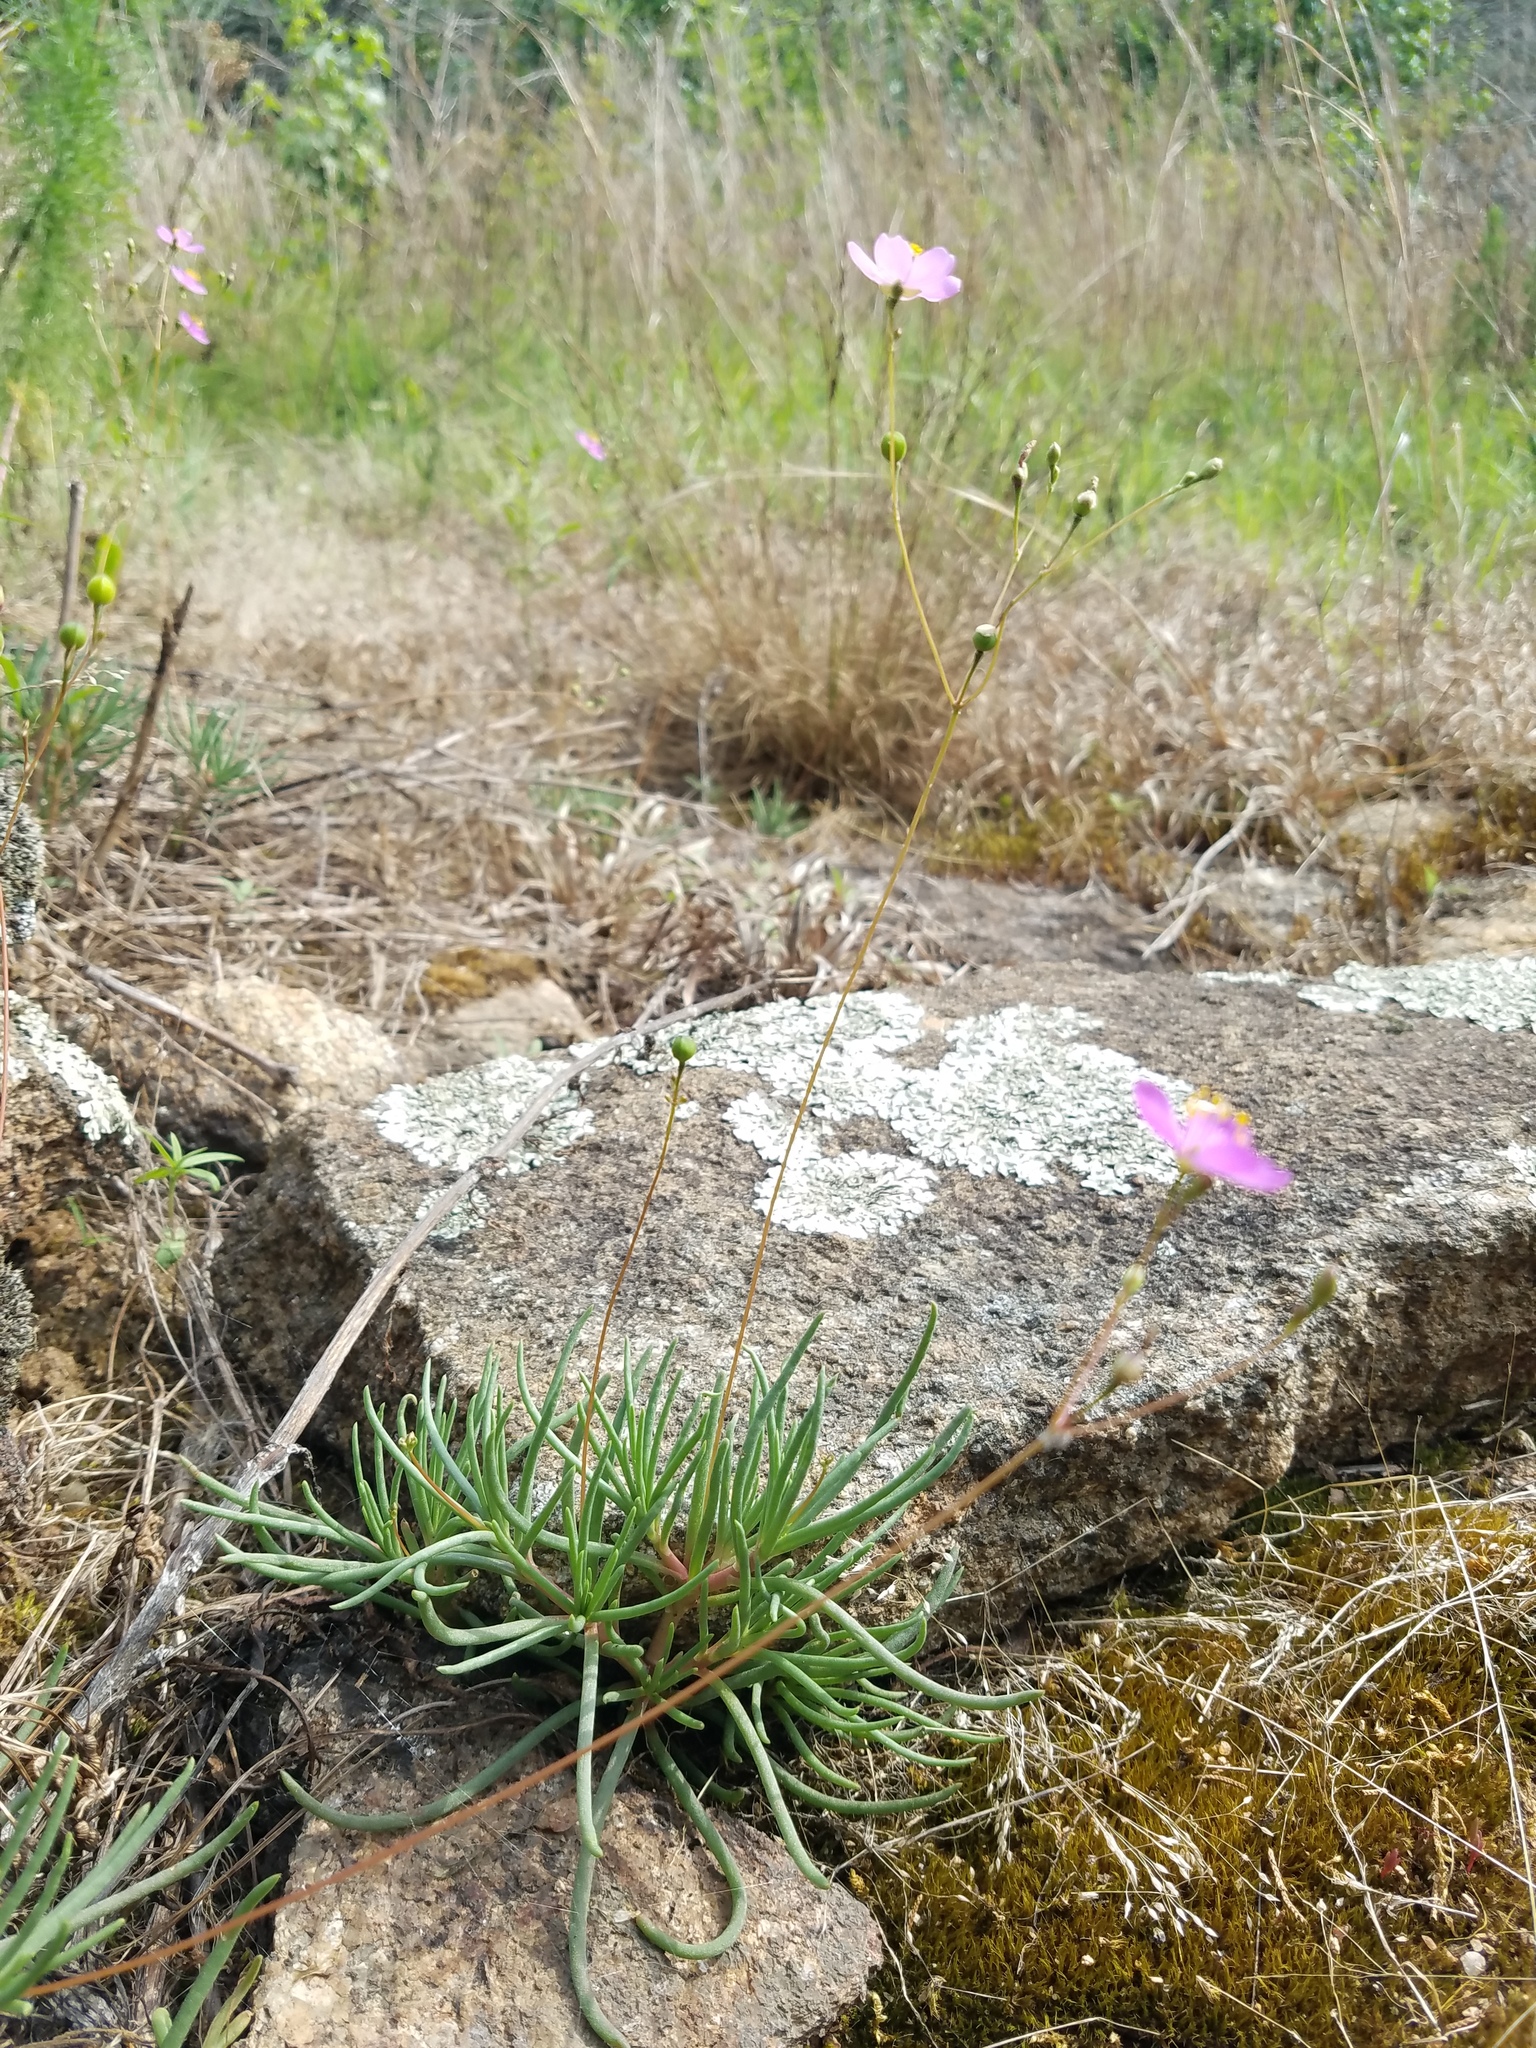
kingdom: Plantae
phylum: Tracheophyta
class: Magnoliopsida
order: Caryophyllales
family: Montiaceae
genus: Phemeranthus
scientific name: Phemeranthus teretifolius
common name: Quill fameflower
